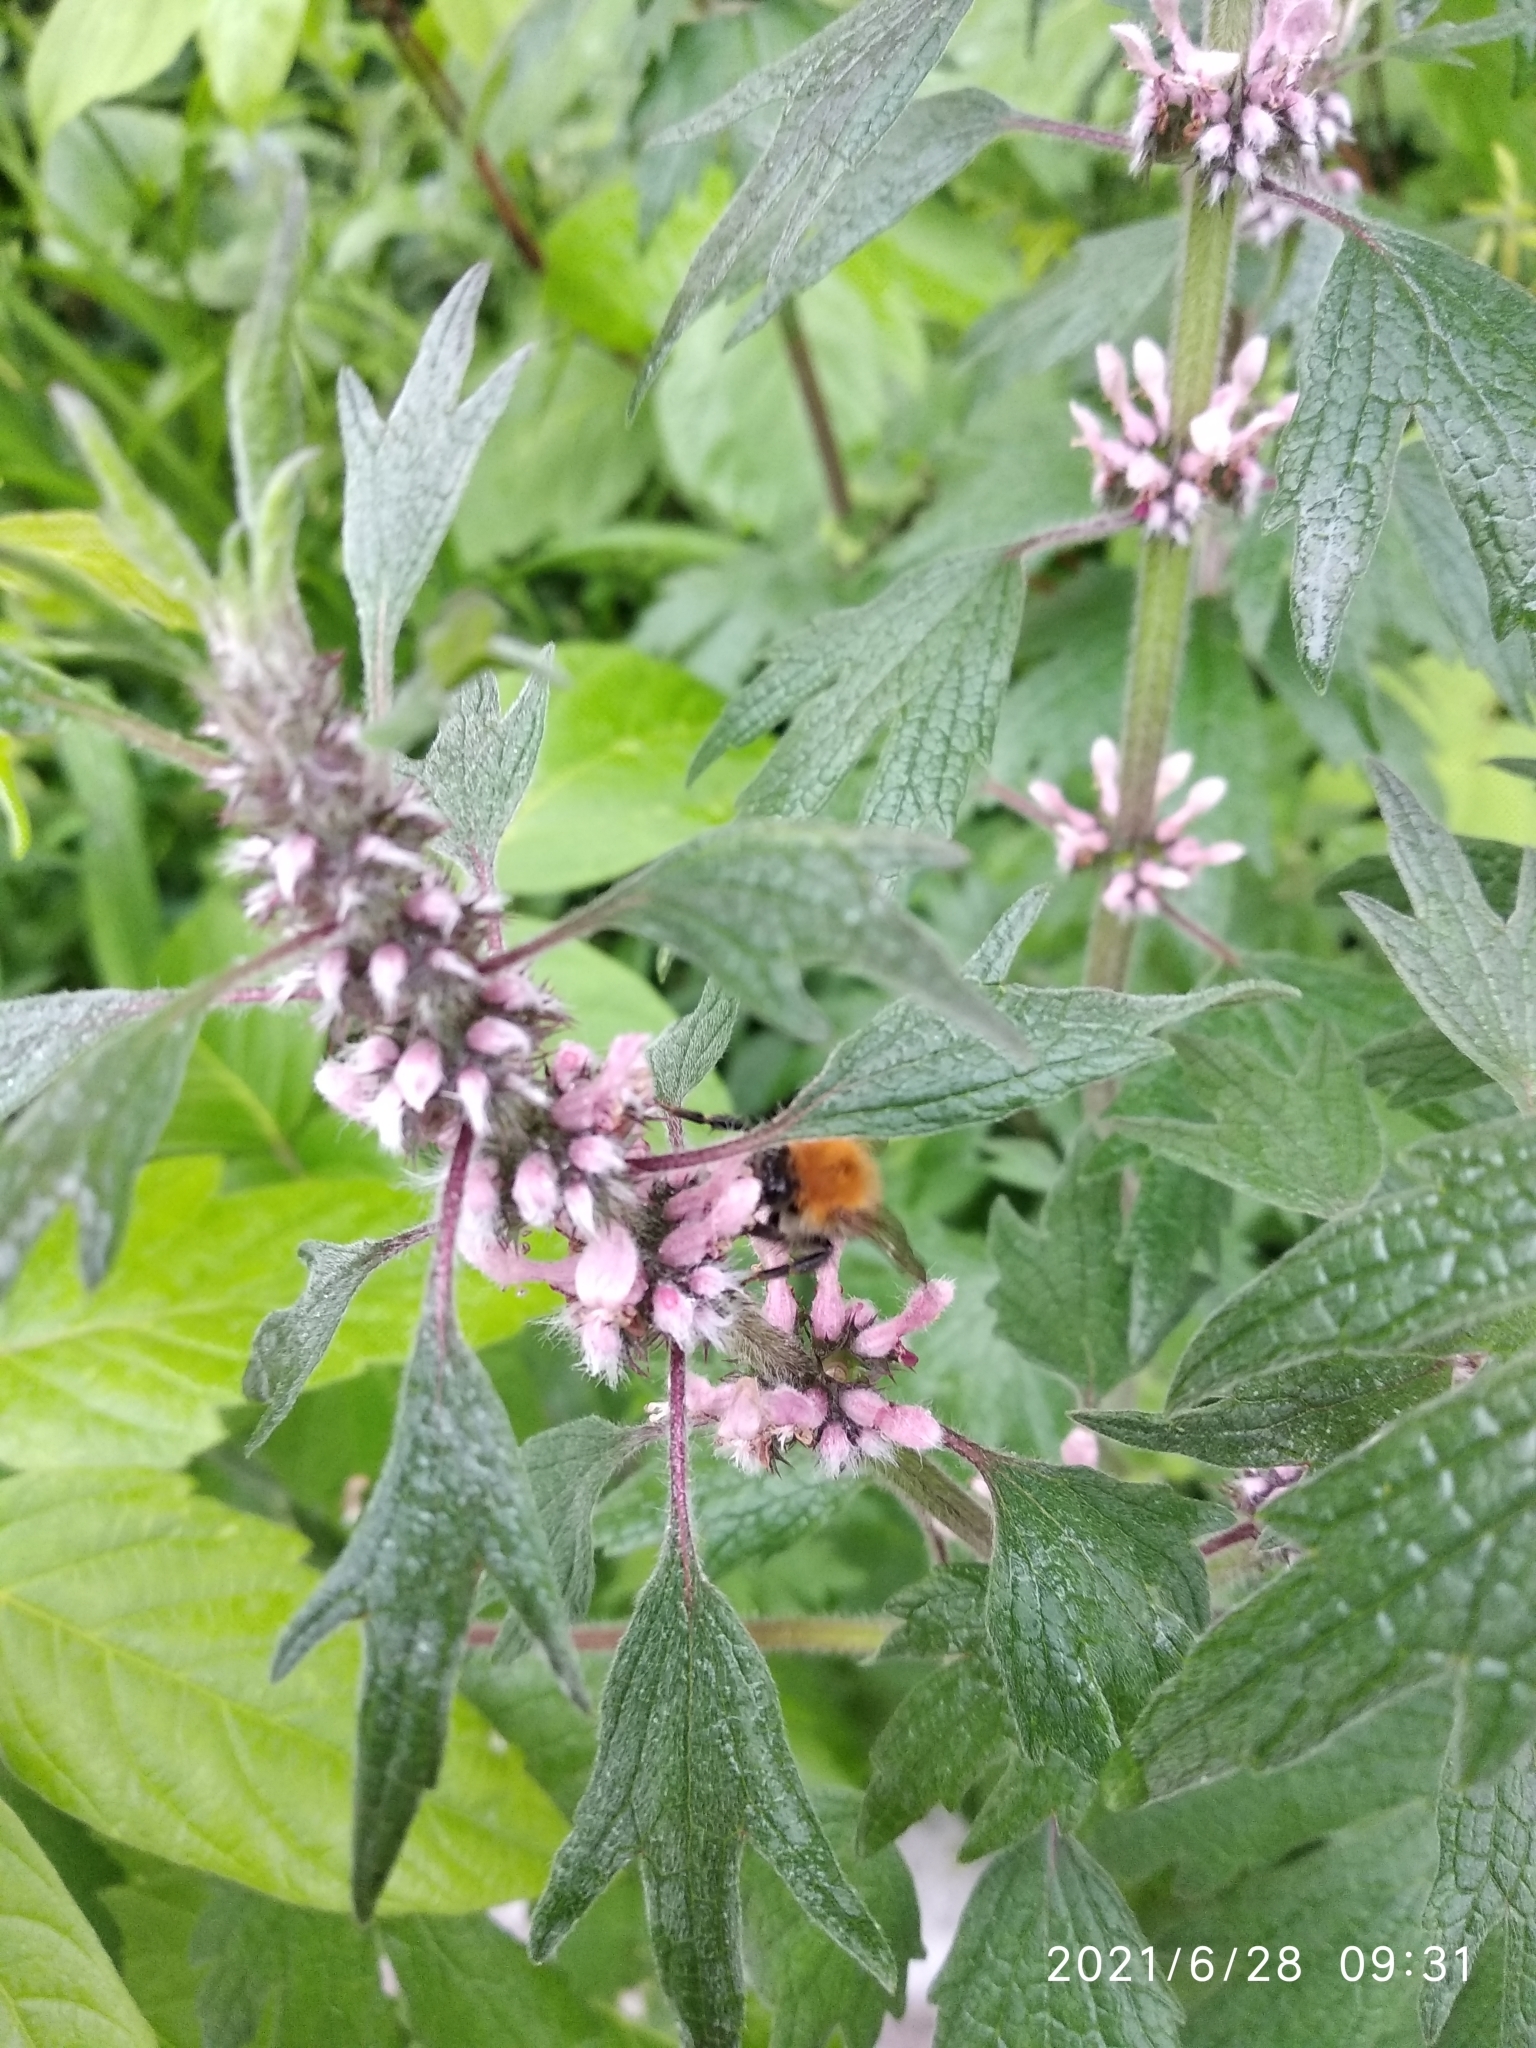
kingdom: Animalia
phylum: Arthropoda
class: Insecta
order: Hymenoptera
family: Apidae
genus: Bombus
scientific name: Bombus pascuorum
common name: Common carder bee
